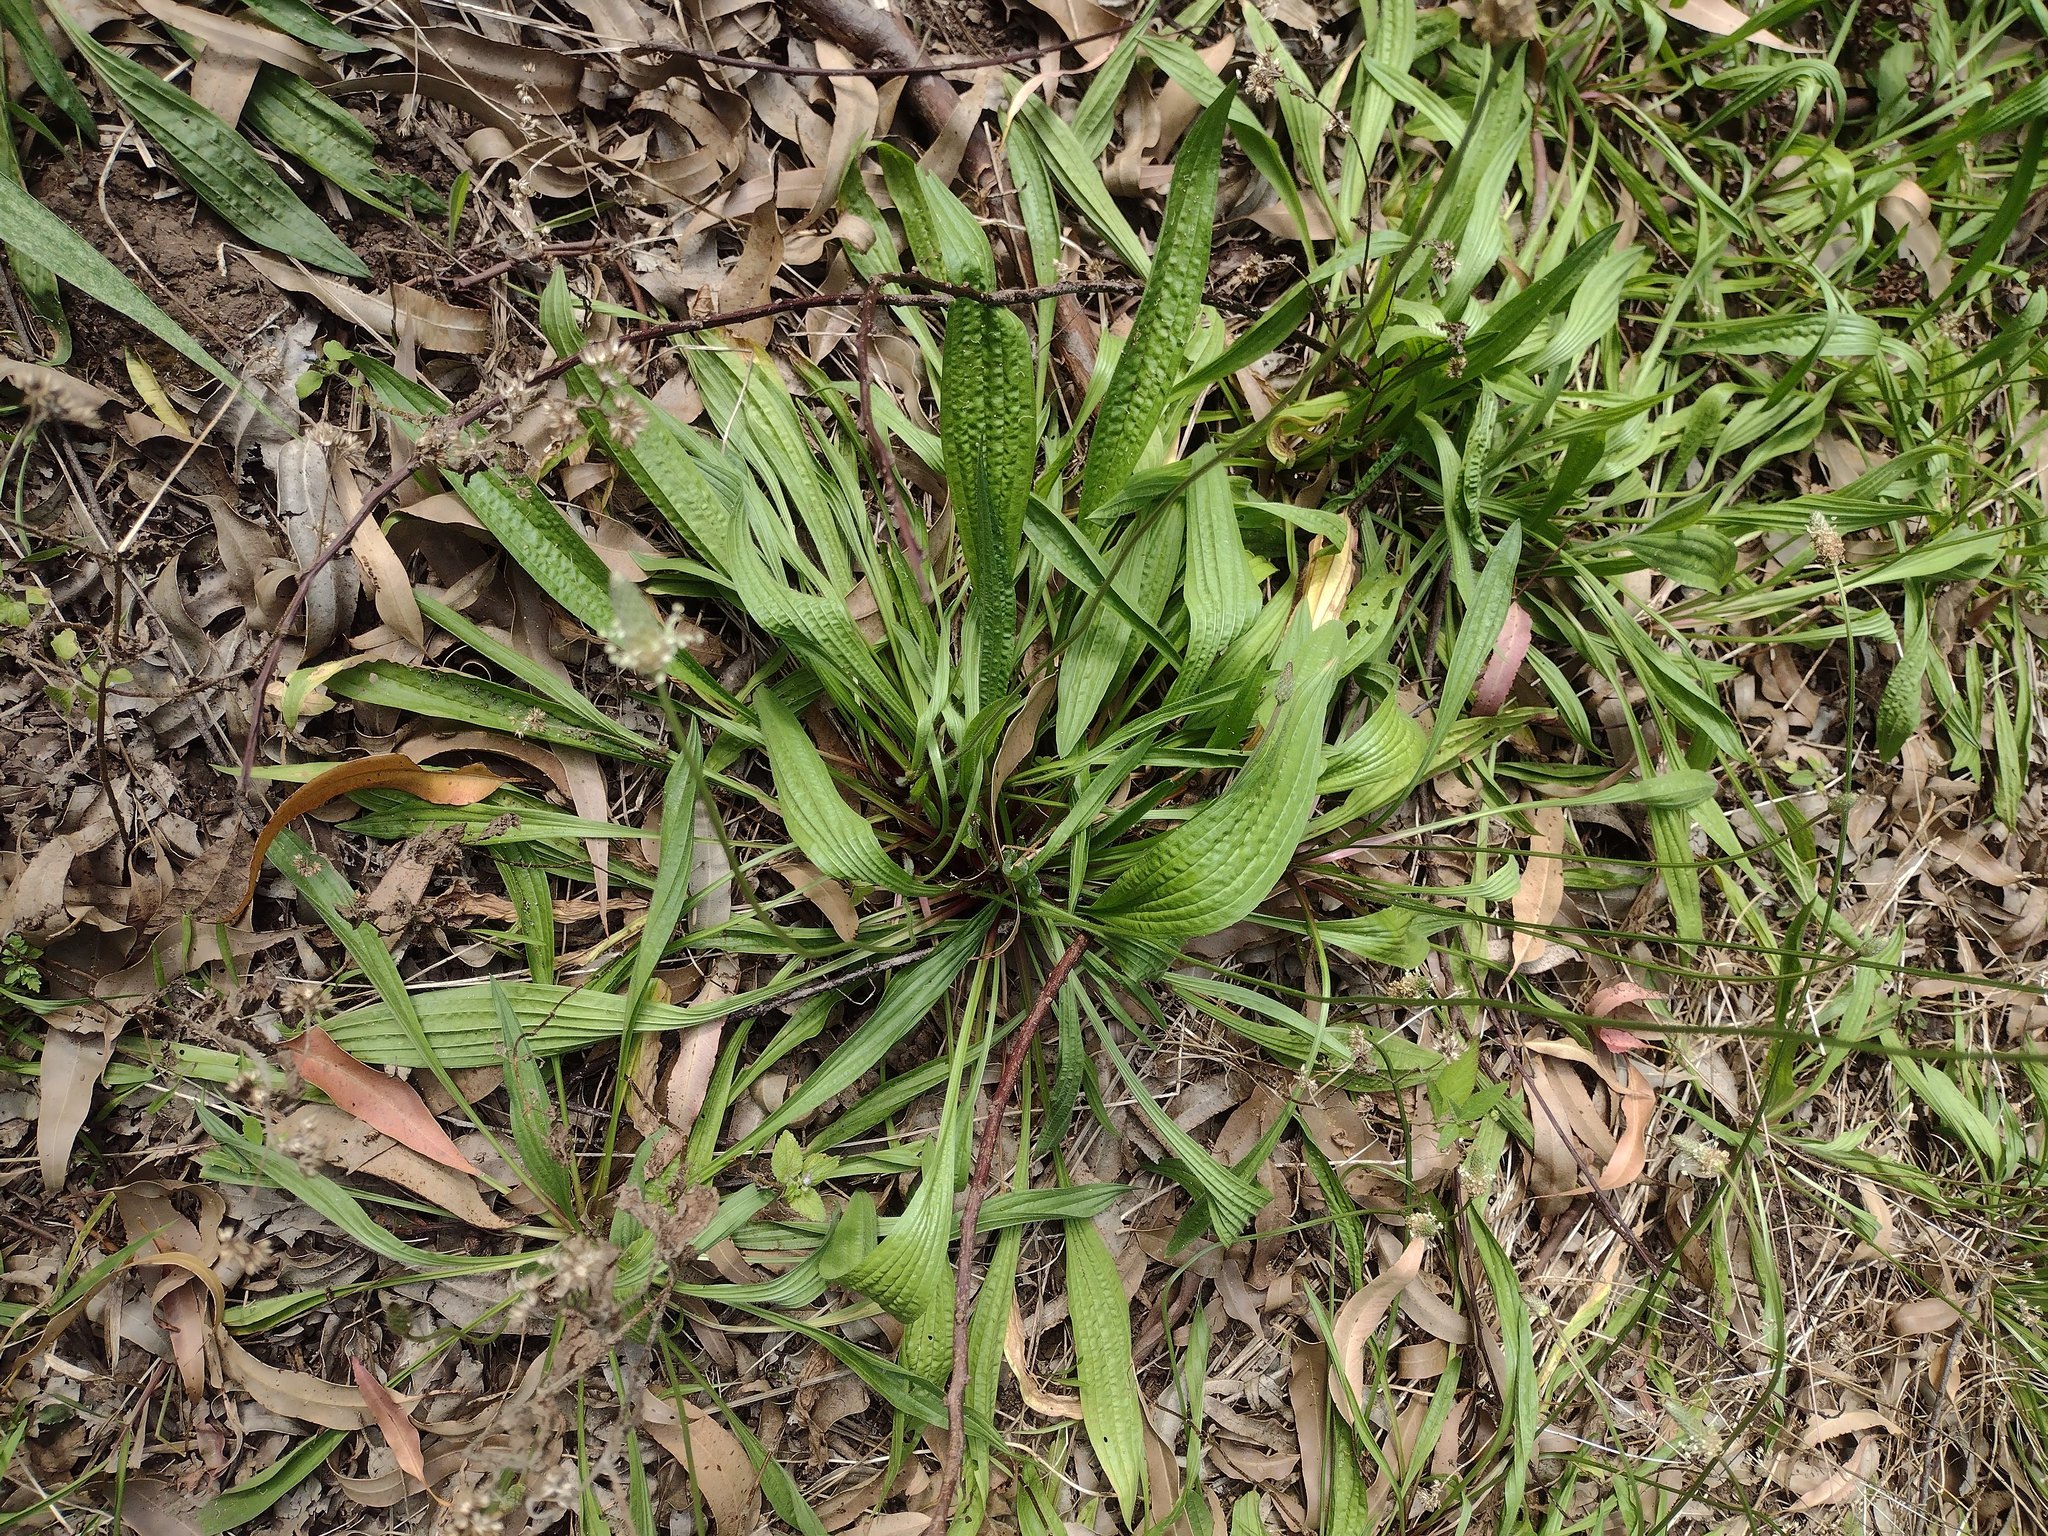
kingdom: Plantae
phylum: Tracheophyta
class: Magnoliopsida
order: Lamiales
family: Plantaginaceae
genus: Plantago
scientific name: Plantago lanceolata
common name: Ribwort plantain
